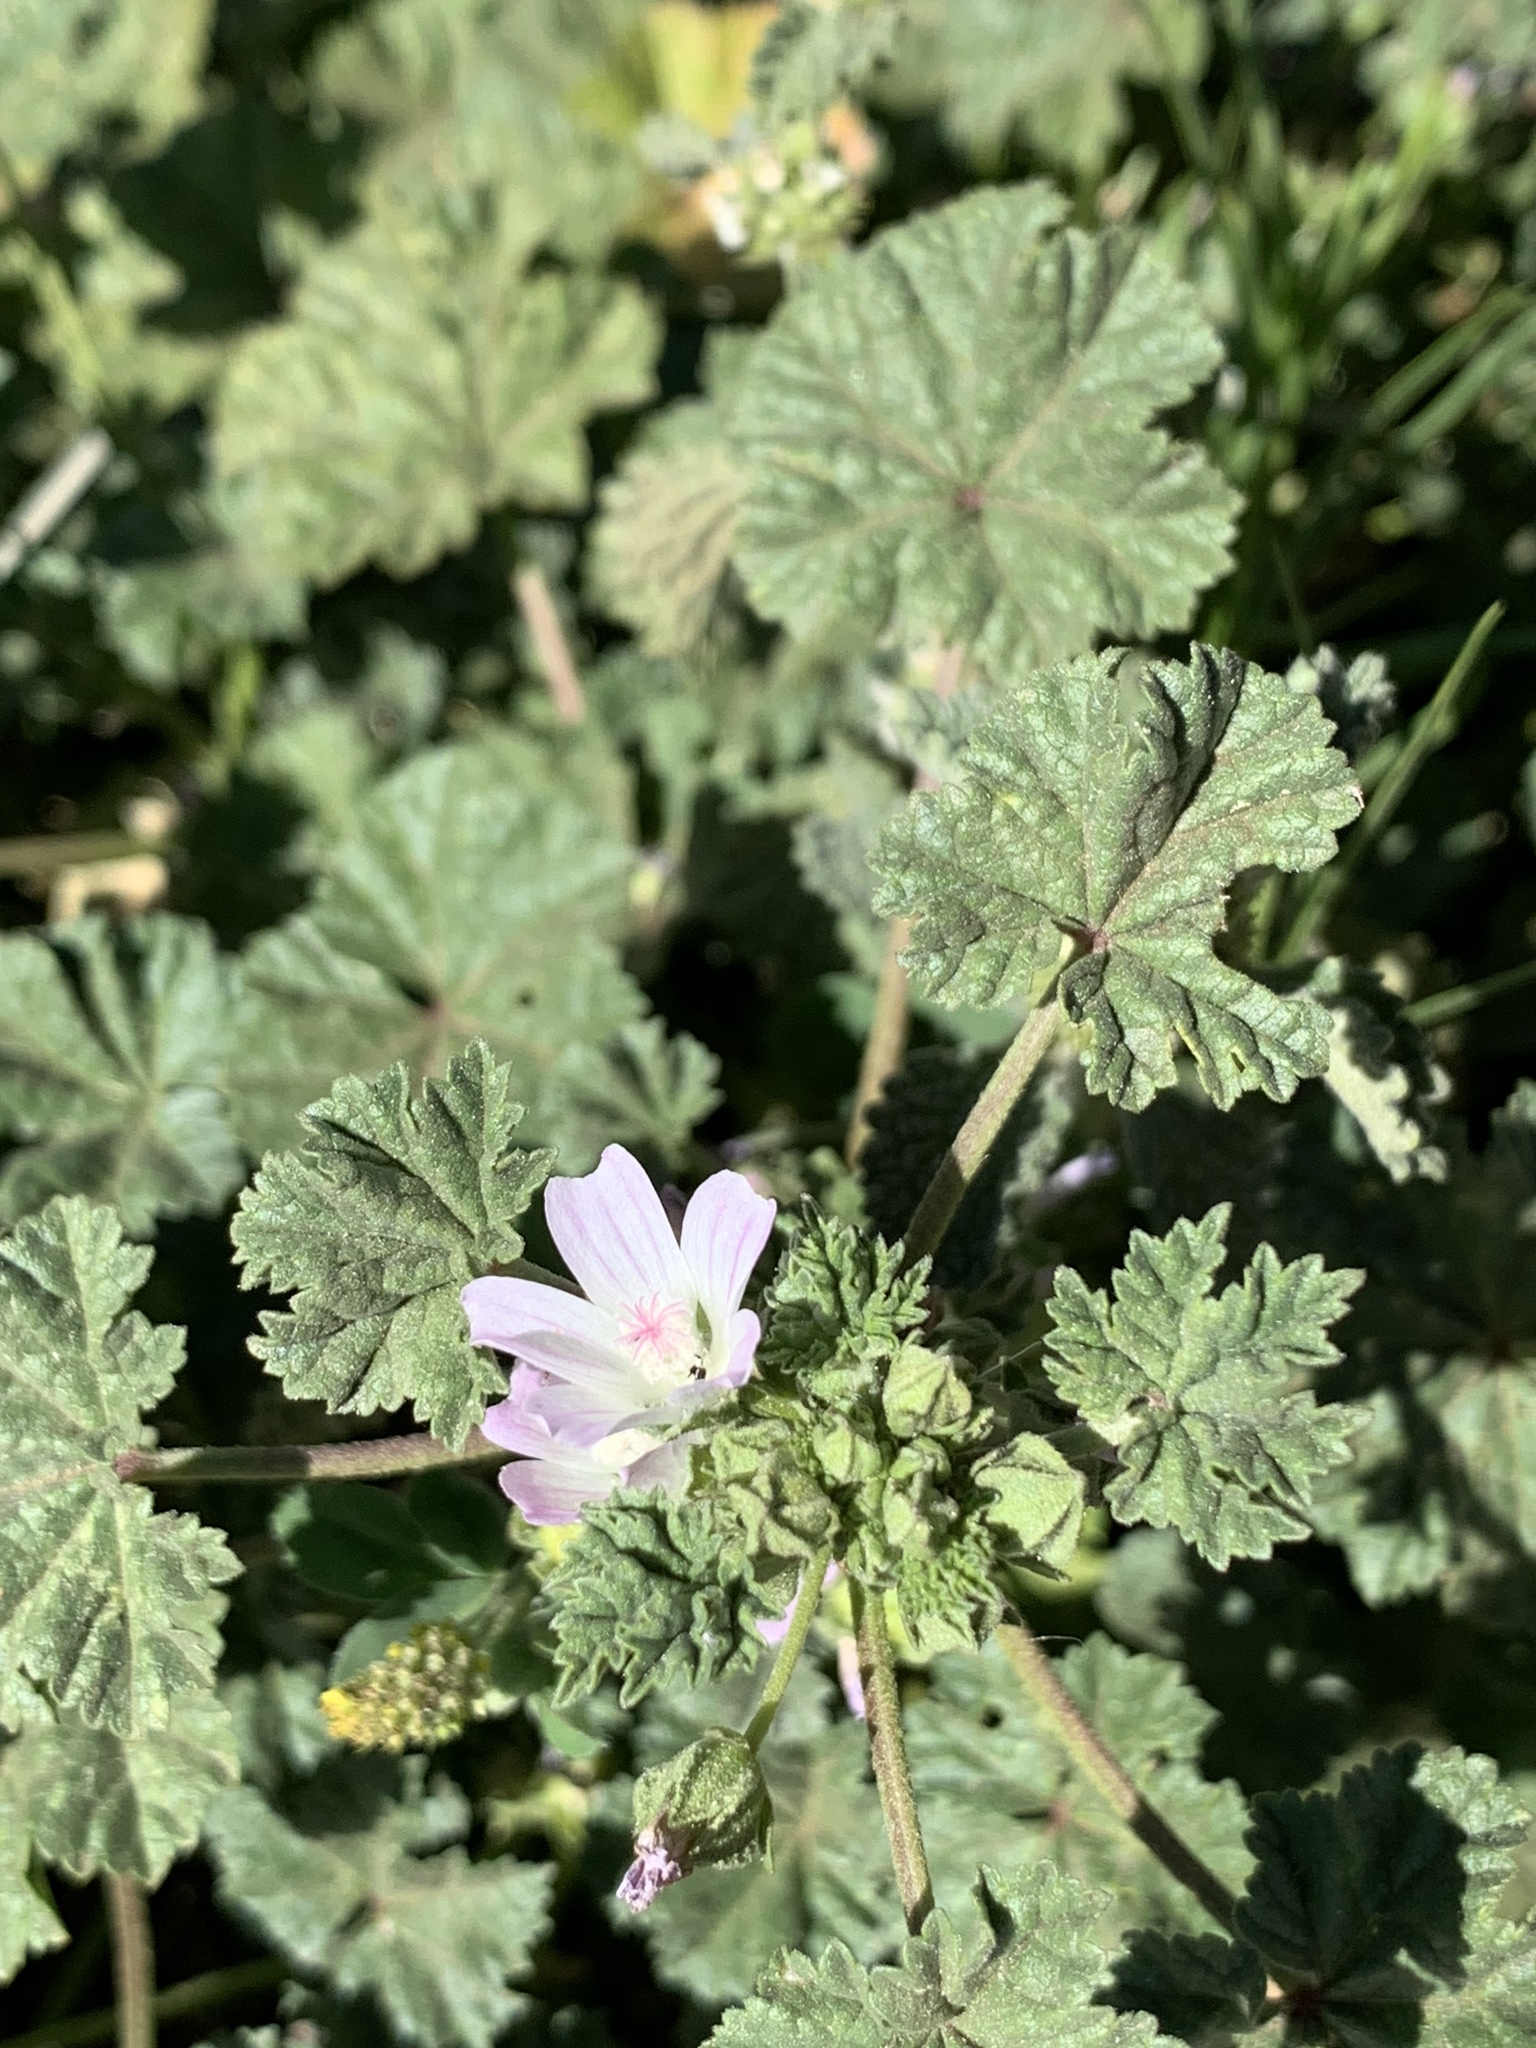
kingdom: Plantae
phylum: Tracheophyta
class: Magnoliopsida
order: Malvales
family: Malvaceae
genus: Malva
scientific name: Malva neglecta
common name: Common mallow
